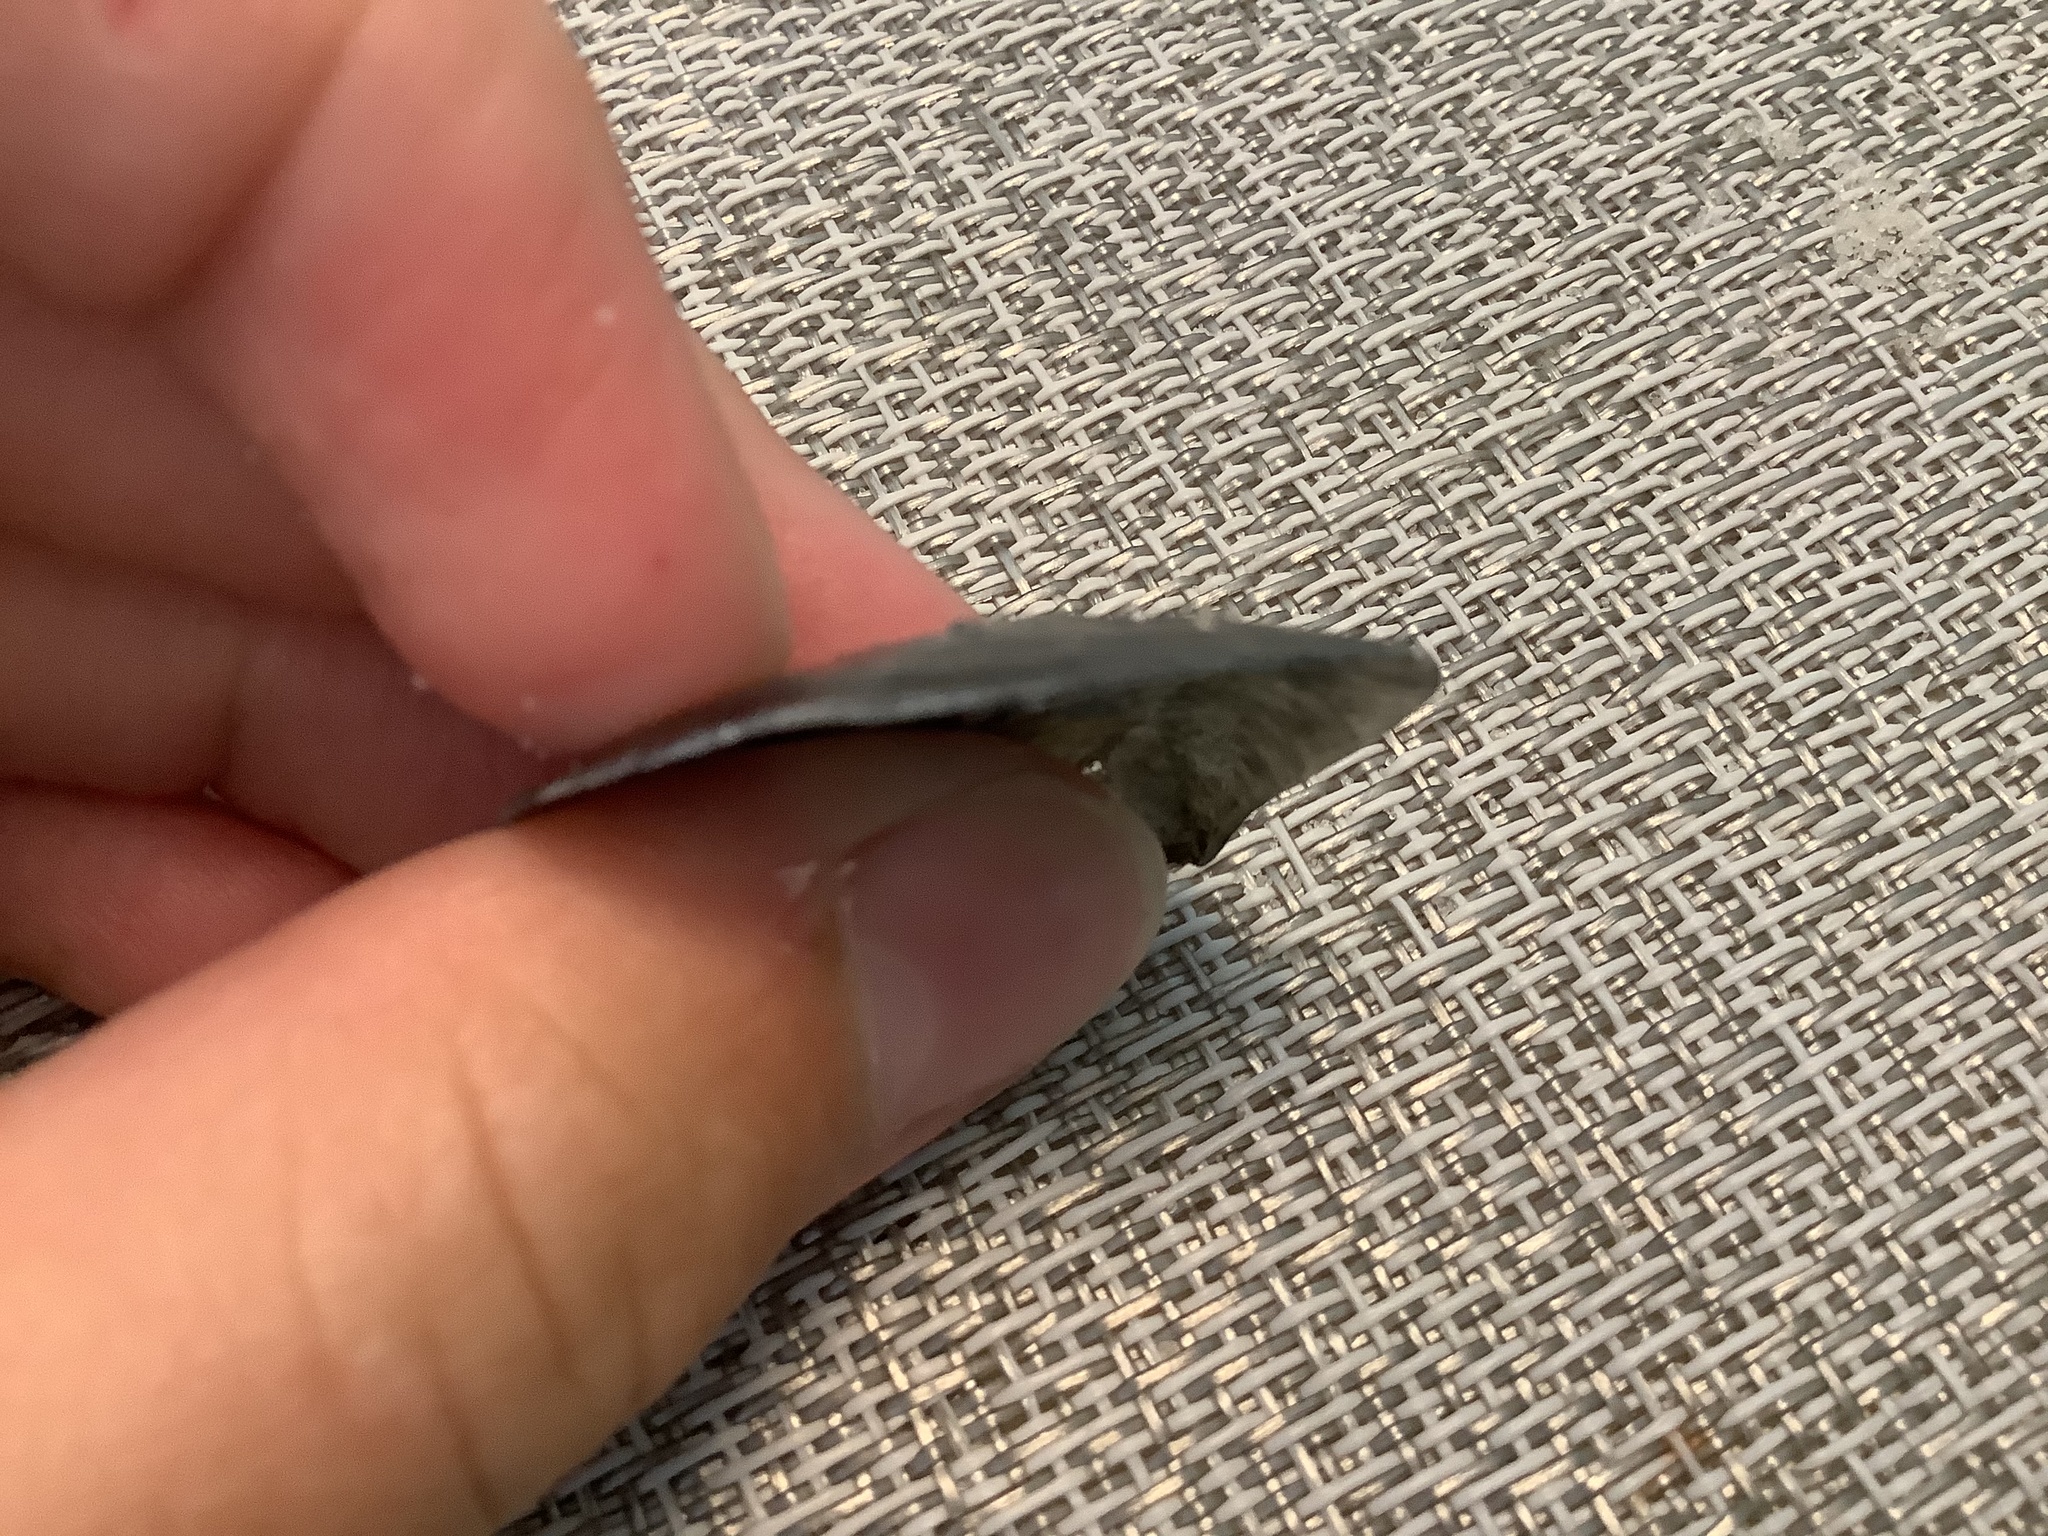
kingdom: Animalia
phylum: Mollusca
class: Bivalvia
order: Pectinida
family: Anomiidae
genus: Anomia
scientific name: Anomia simplex
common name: Common jingle shell
